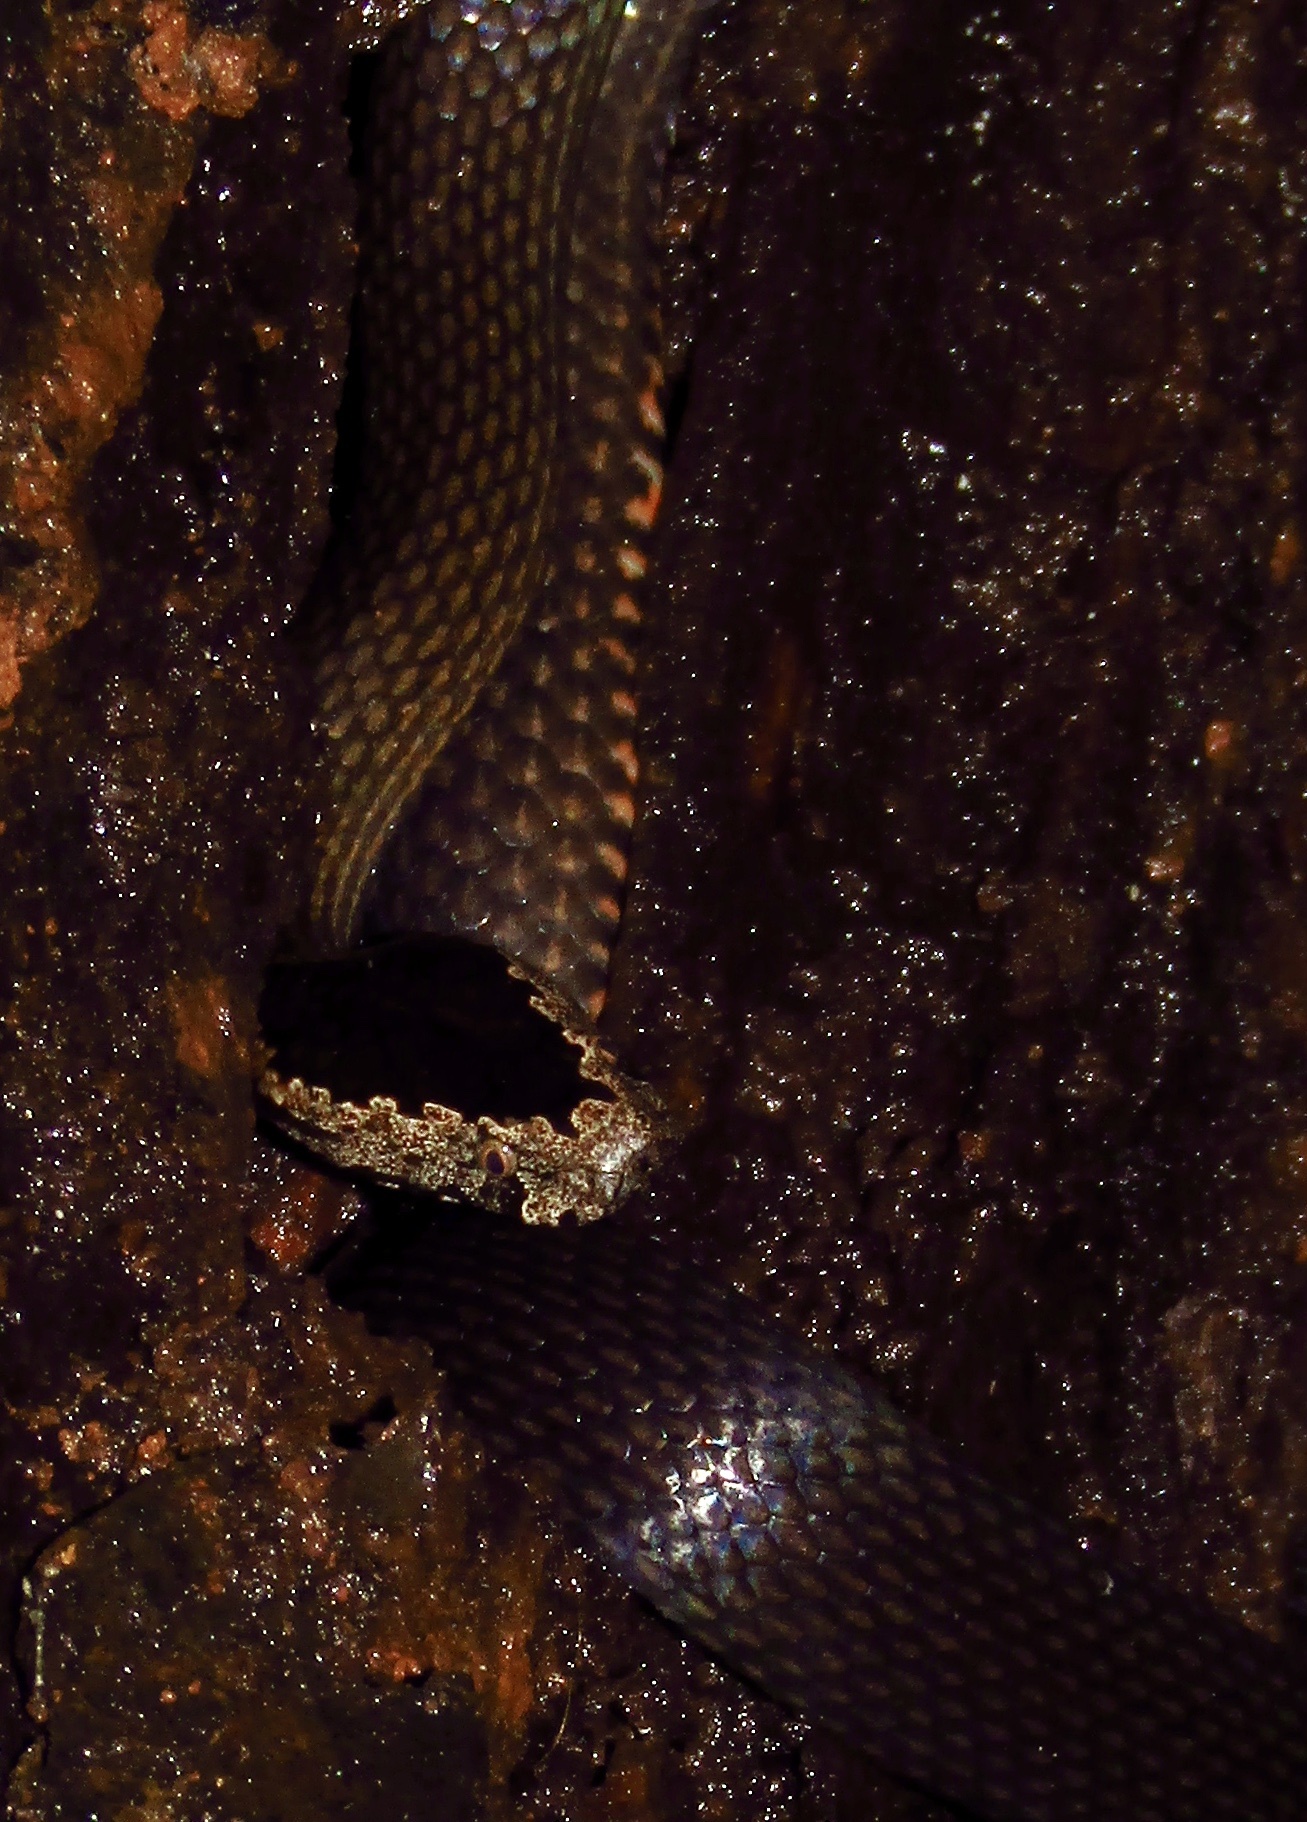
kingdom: Animalia
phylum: Chordata
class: Squamata
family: Elapidae
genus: Cacophis
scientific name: Cacophis squamulosus
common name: Golden crowned snake
